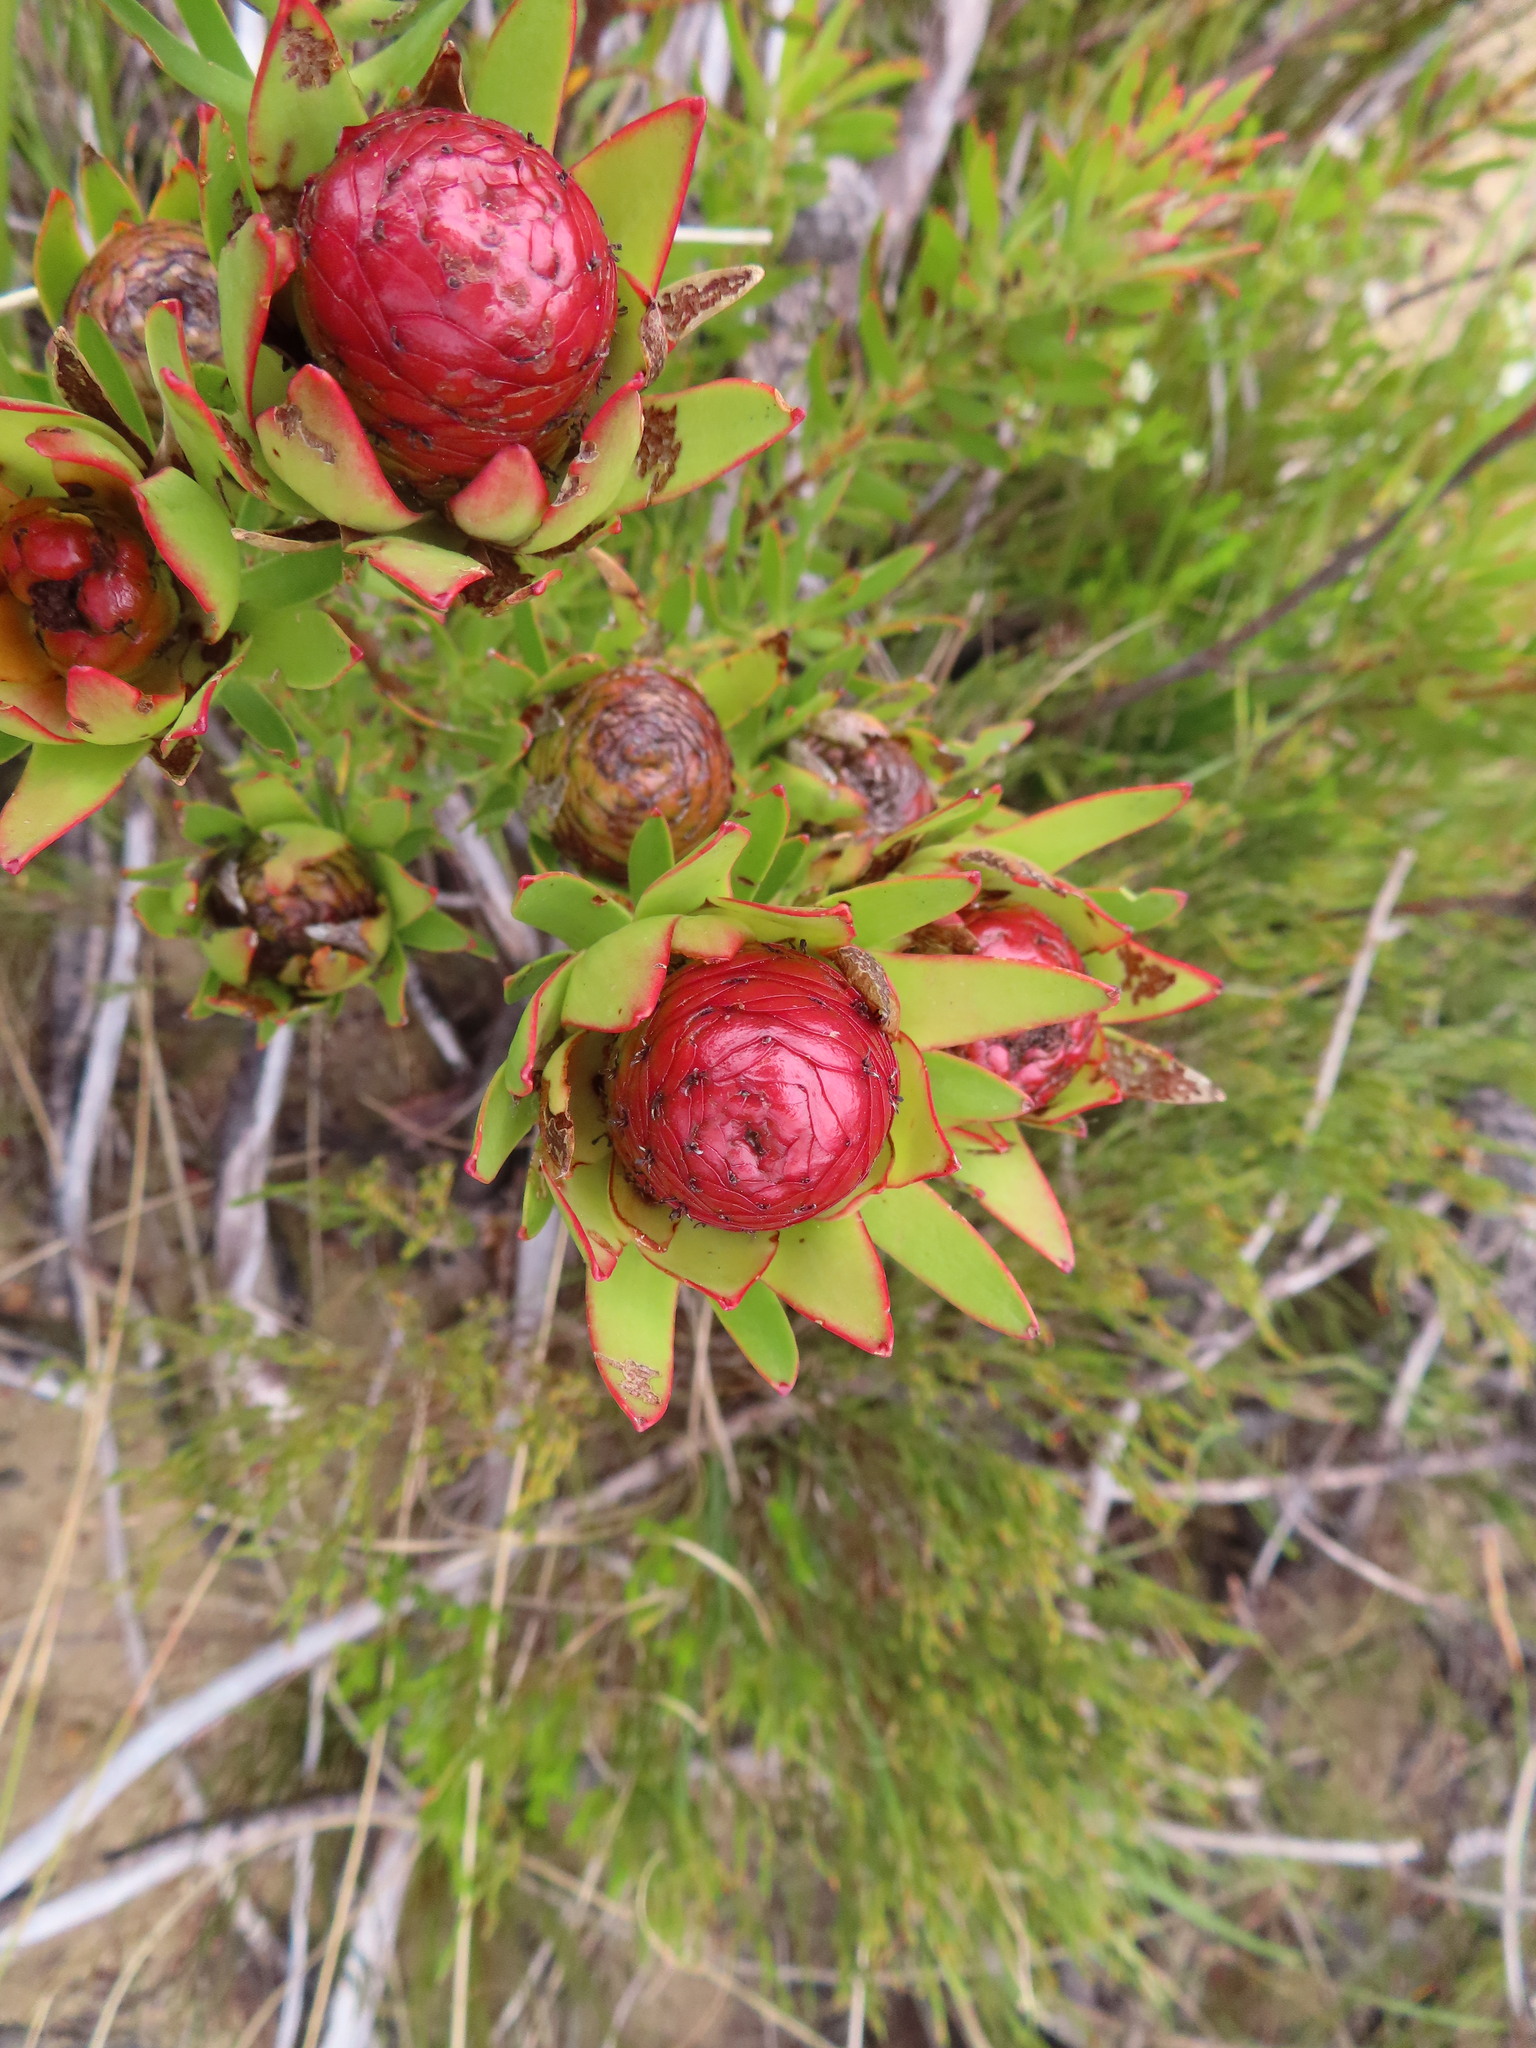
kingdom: Plantae
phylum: Tracheophyta
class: Magnoliopsida
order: Proteales
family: Proteaceae
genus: Leucadendron
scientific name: Leucadendron spissifolium
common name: Spear-leaf conebush
